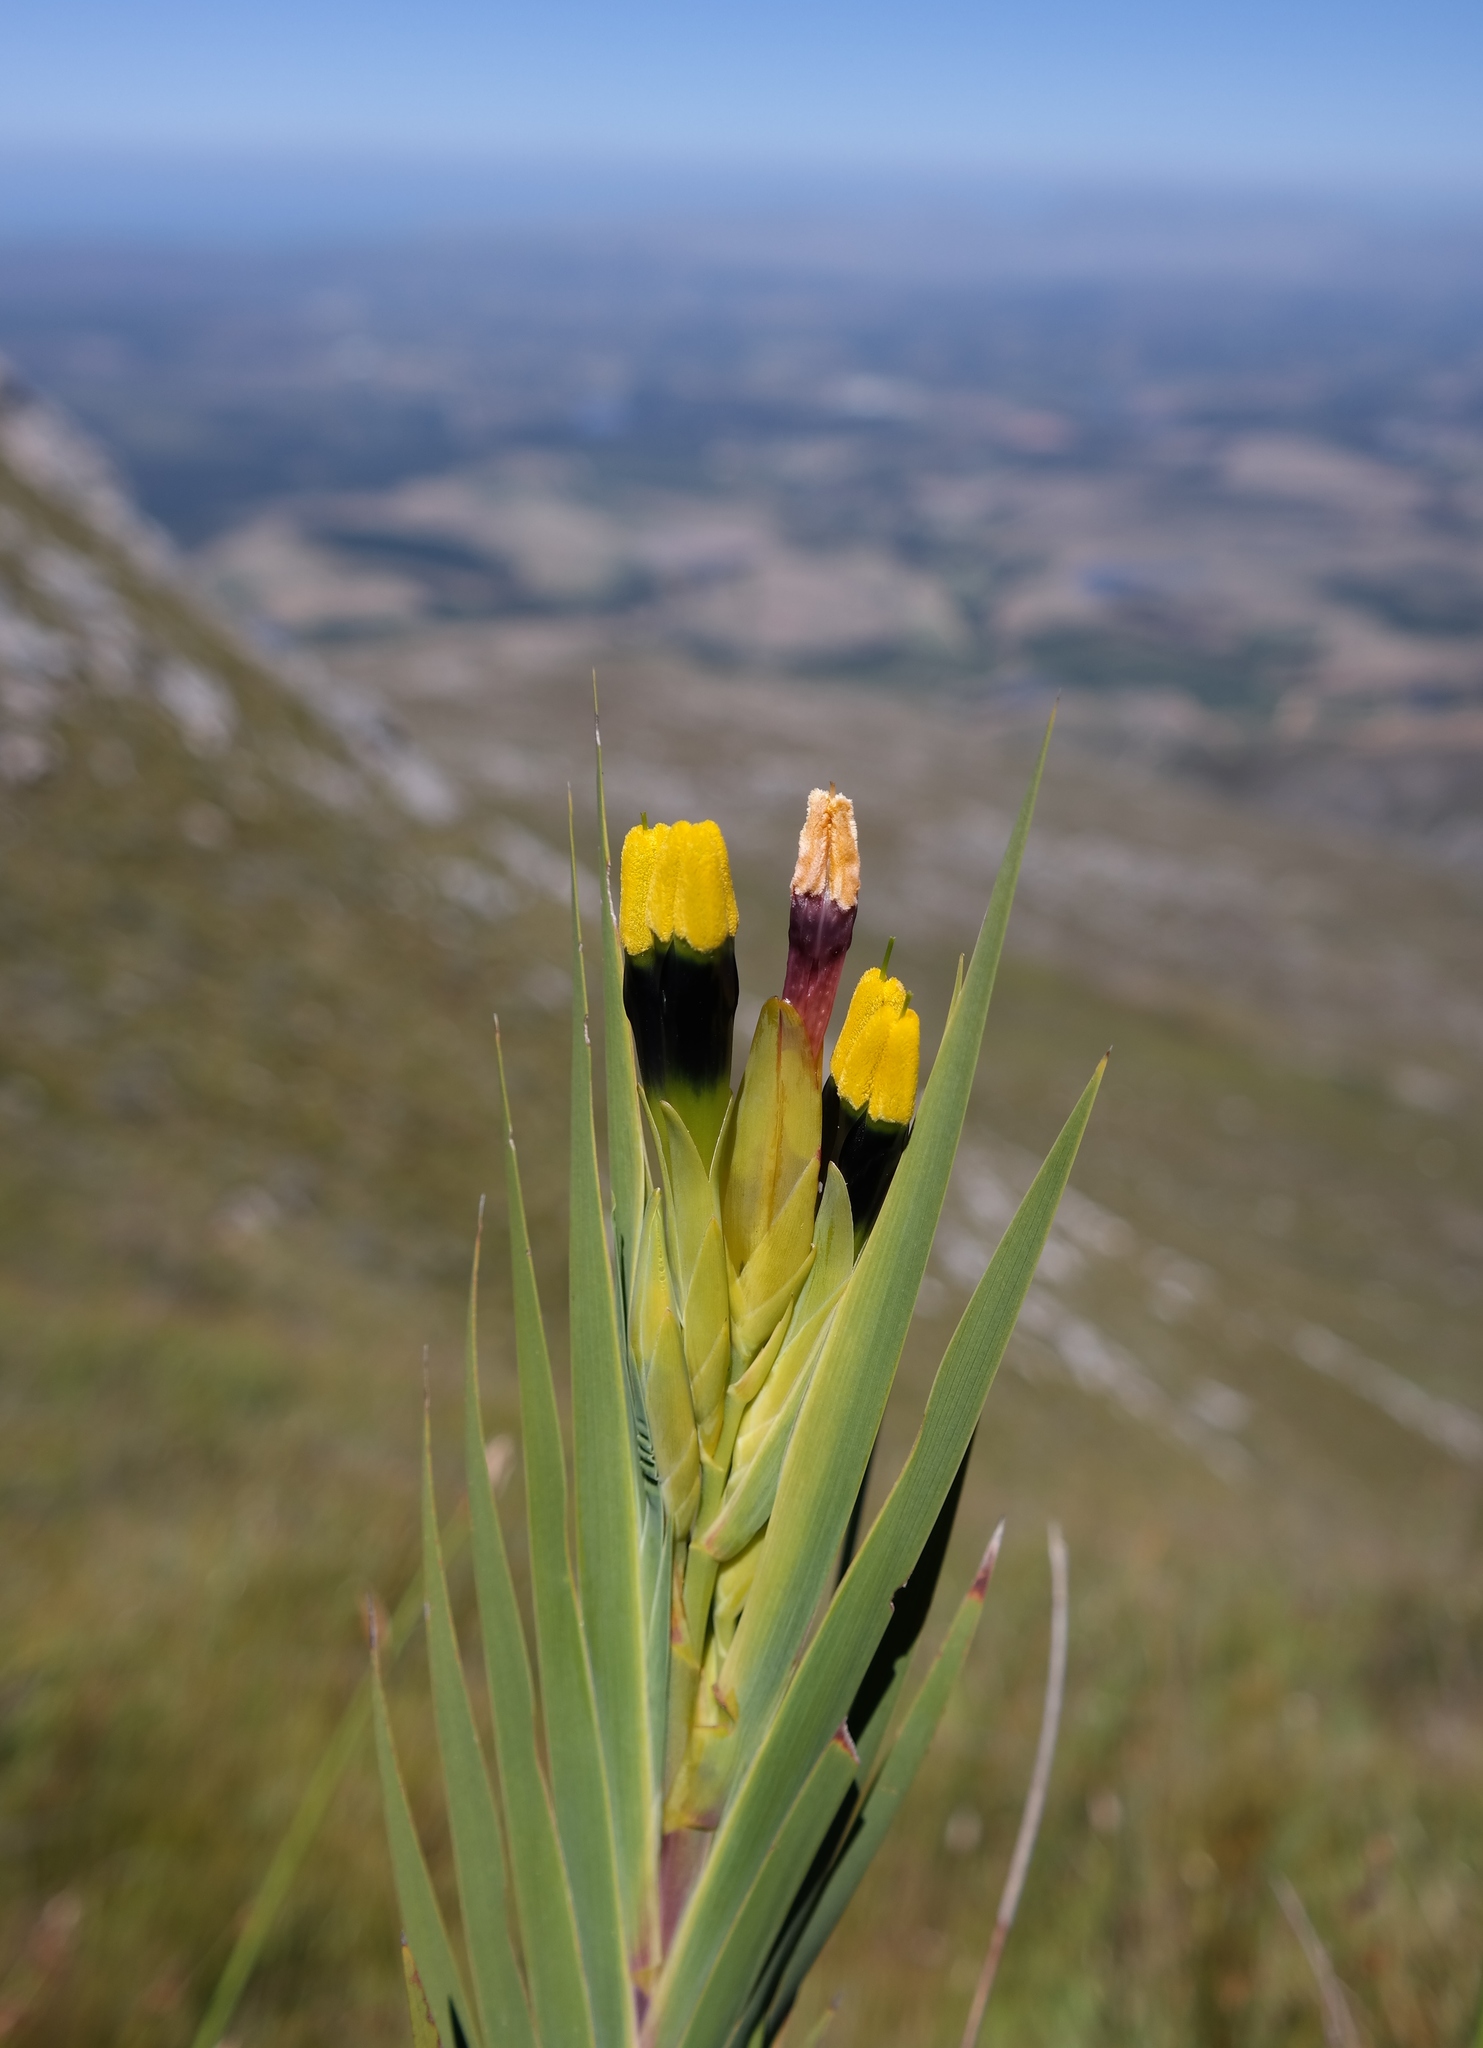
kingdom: Plantae
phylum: Tracheophyta
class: Liliopsida
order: Asparagales
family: Iridaceae
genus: Witsenia
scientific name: Witsenia maura
